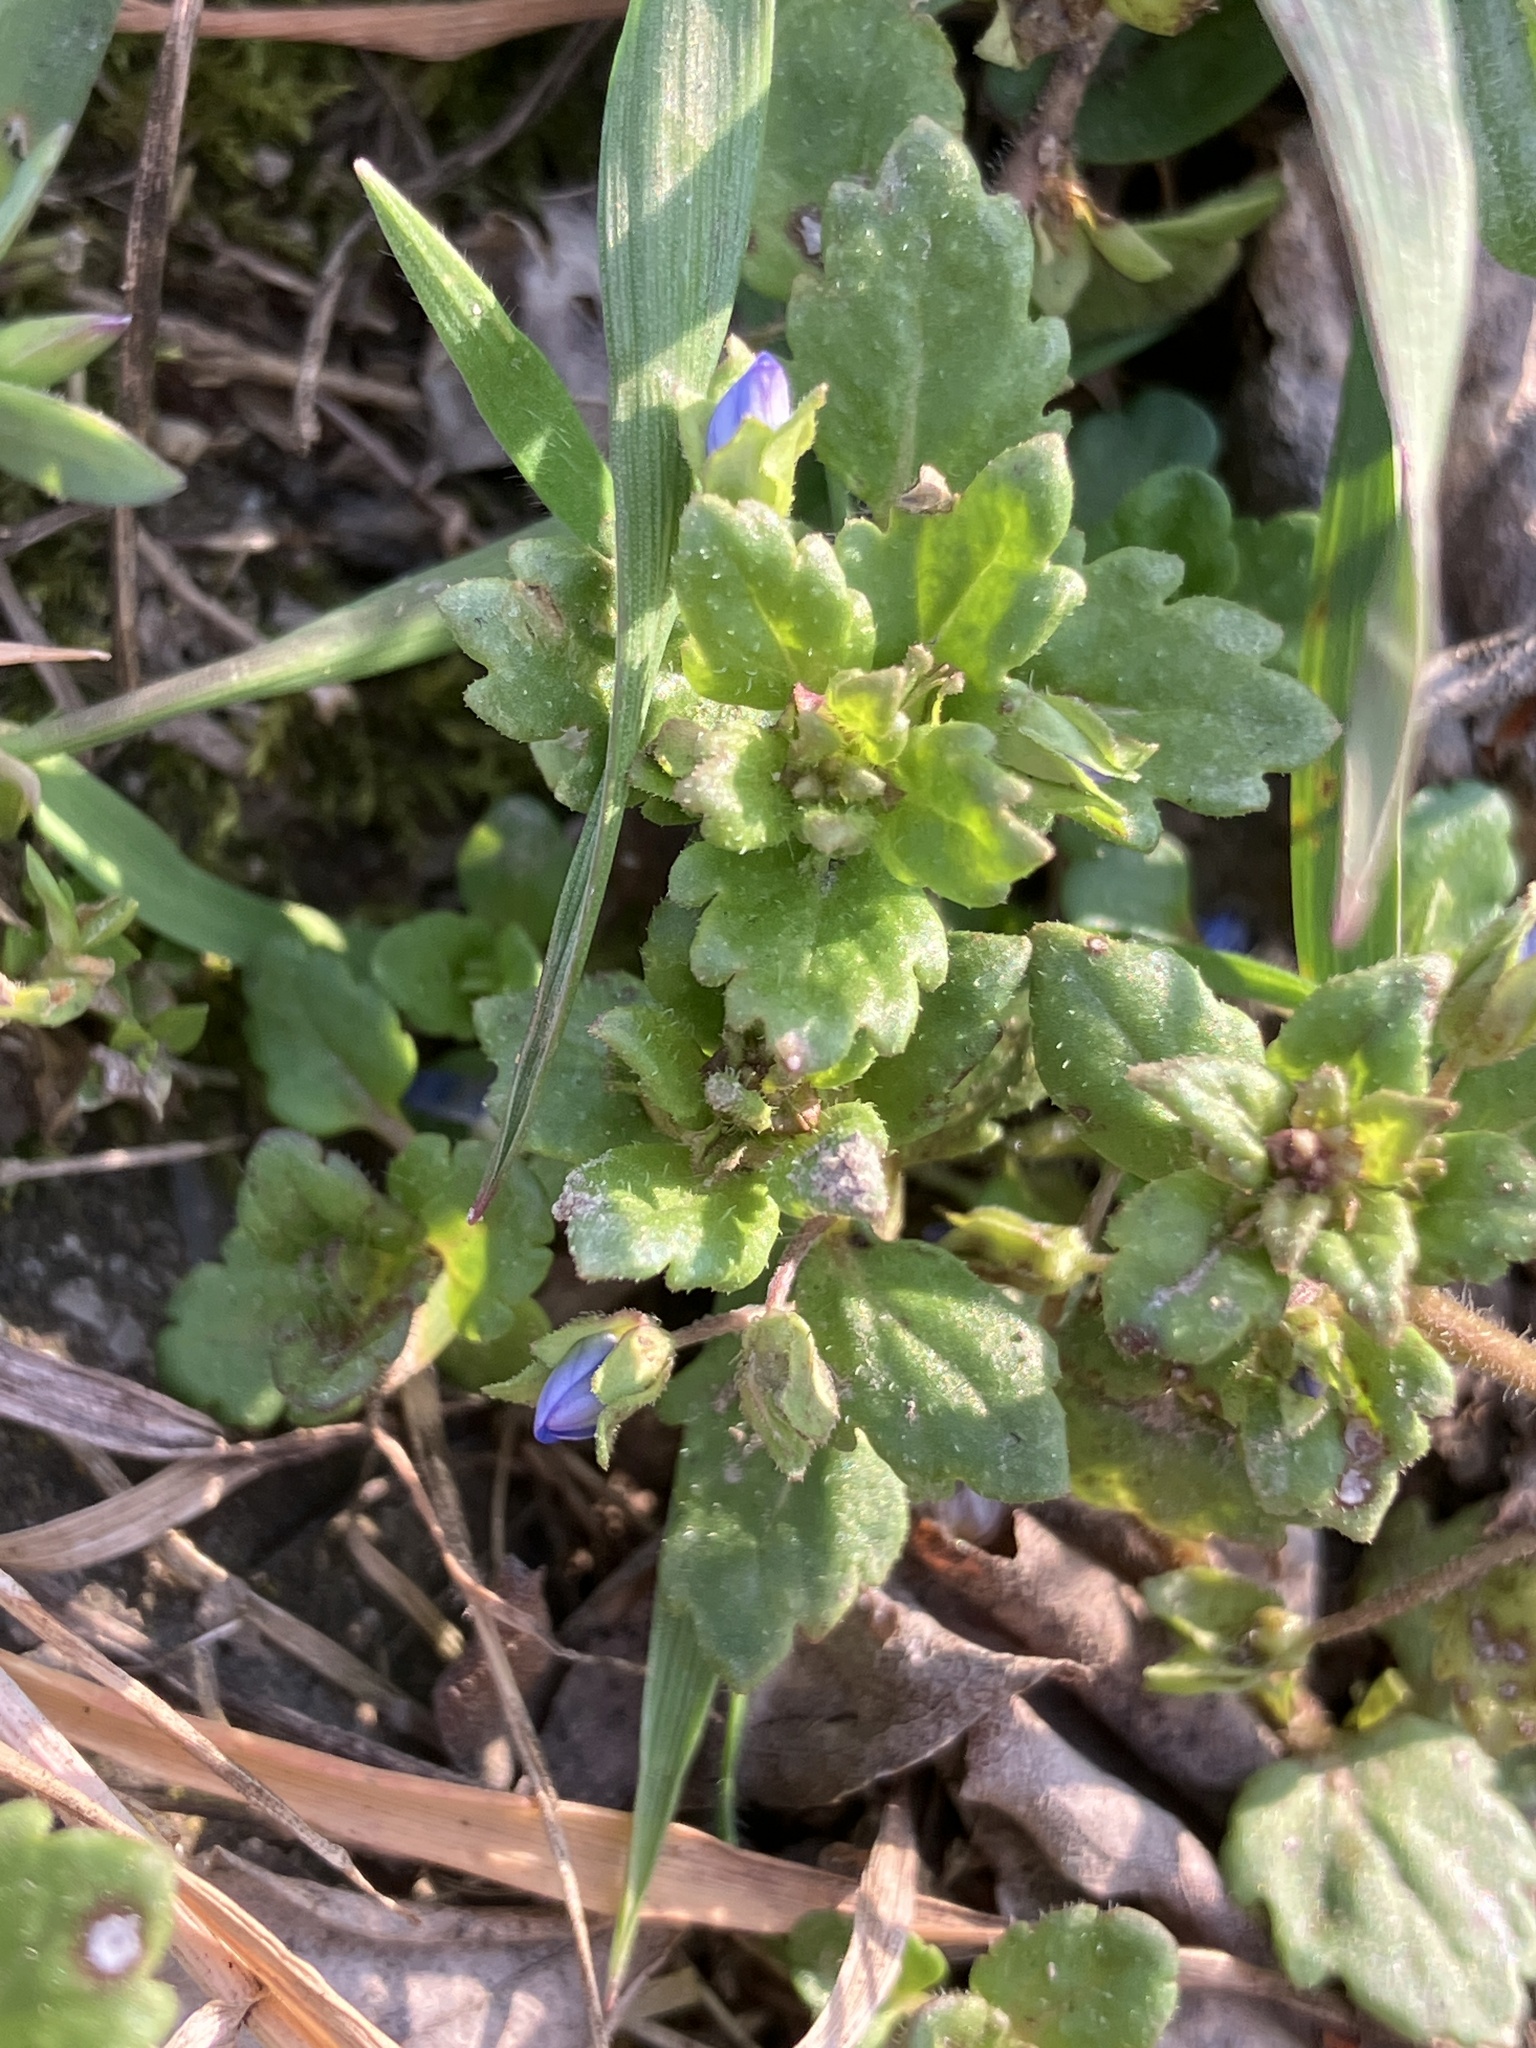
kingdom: Plantae
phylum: Tracheophyta
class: Magnoliopsida
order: Lamiales
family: Plantaginaceae
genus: Veronica
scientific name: Veronica polita
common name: Grey field-speedwell
